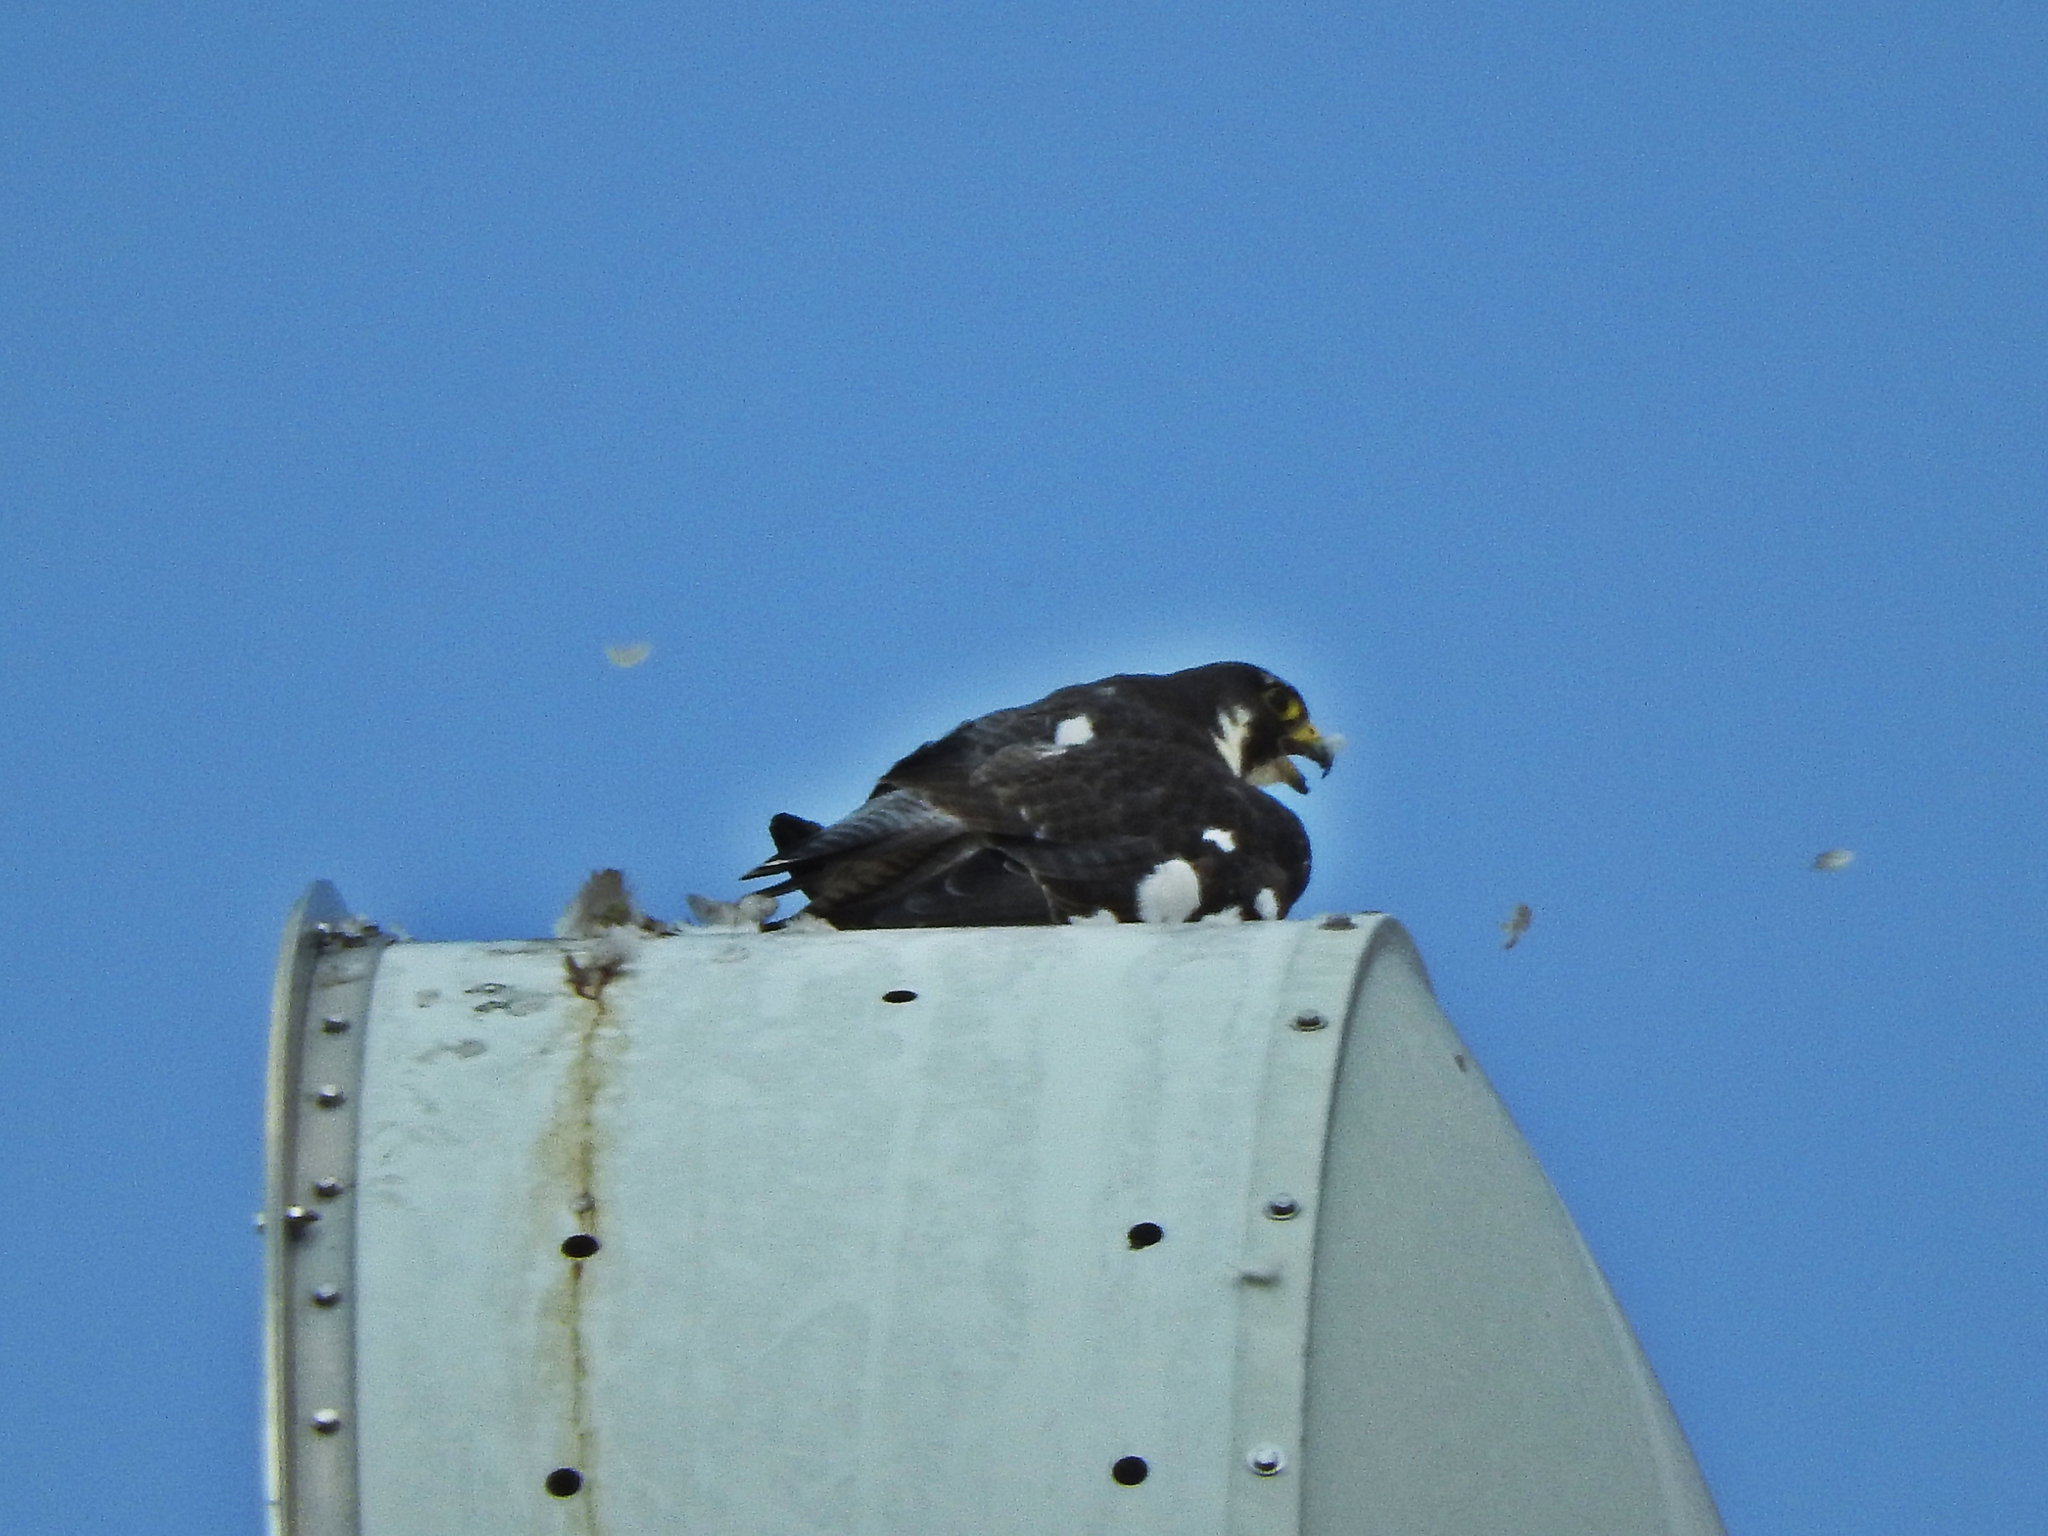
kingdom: Animalia
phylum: Chordata
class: Aves
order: Falconiformes
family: Falconidae
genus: Falco
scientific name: Falco peregrinus
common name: Peregrine falcon
